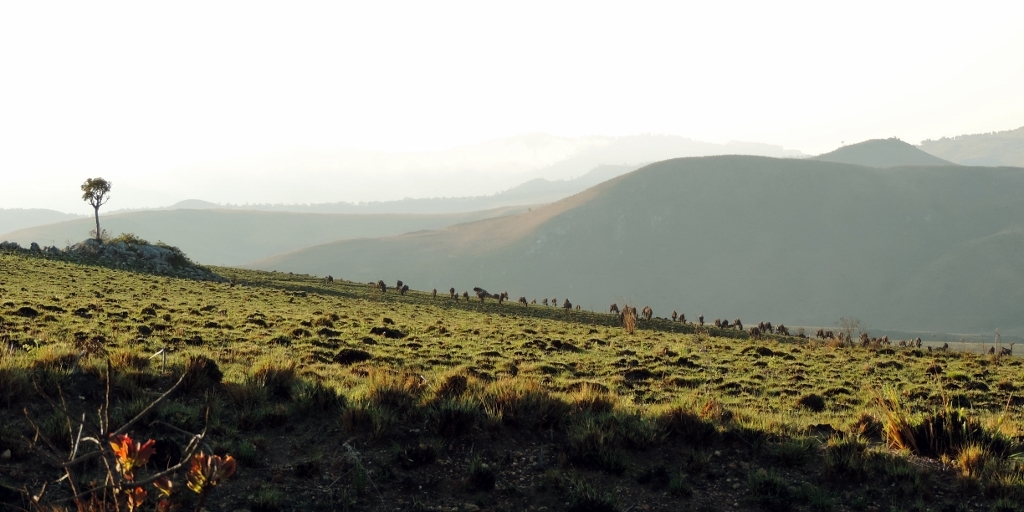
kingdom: Animalia
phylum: Chordata
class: Mammalia
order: Artiodactyla
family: Bovidae
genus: Connochaetes
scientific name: Connochaetes taurinus
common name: Blue wildebeest
